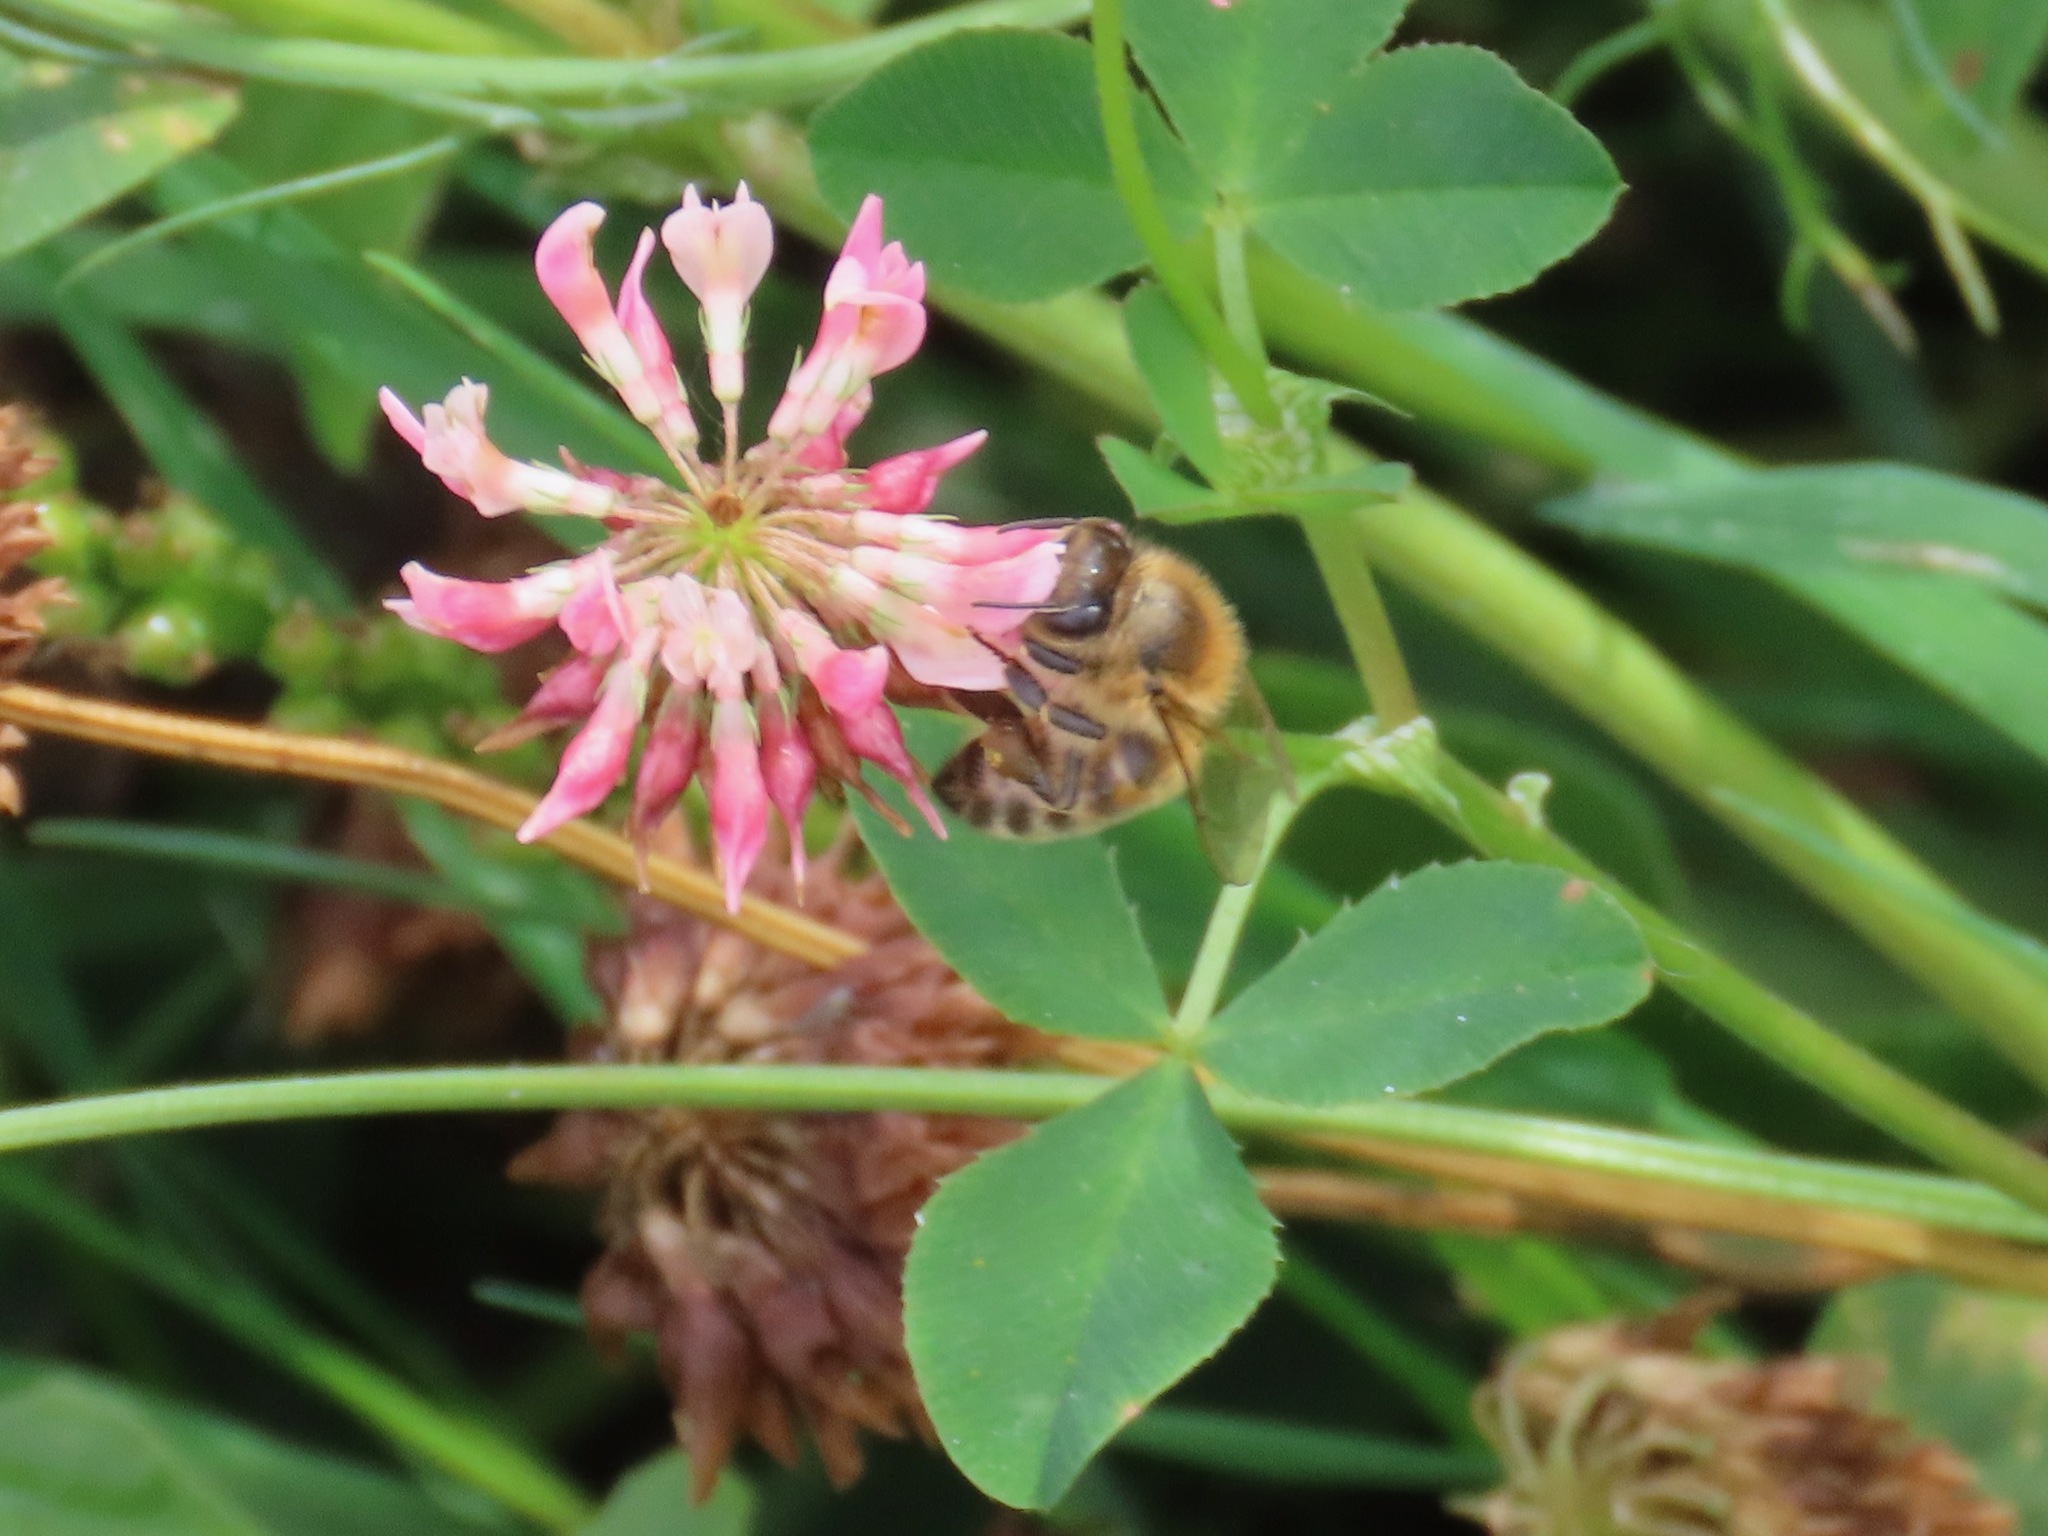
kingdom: Animalia
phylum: Arthropoda
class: Insecta
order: Hymenoptera
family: Apidae
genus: Apis
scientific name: Apis mellifera
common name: Honey bee
